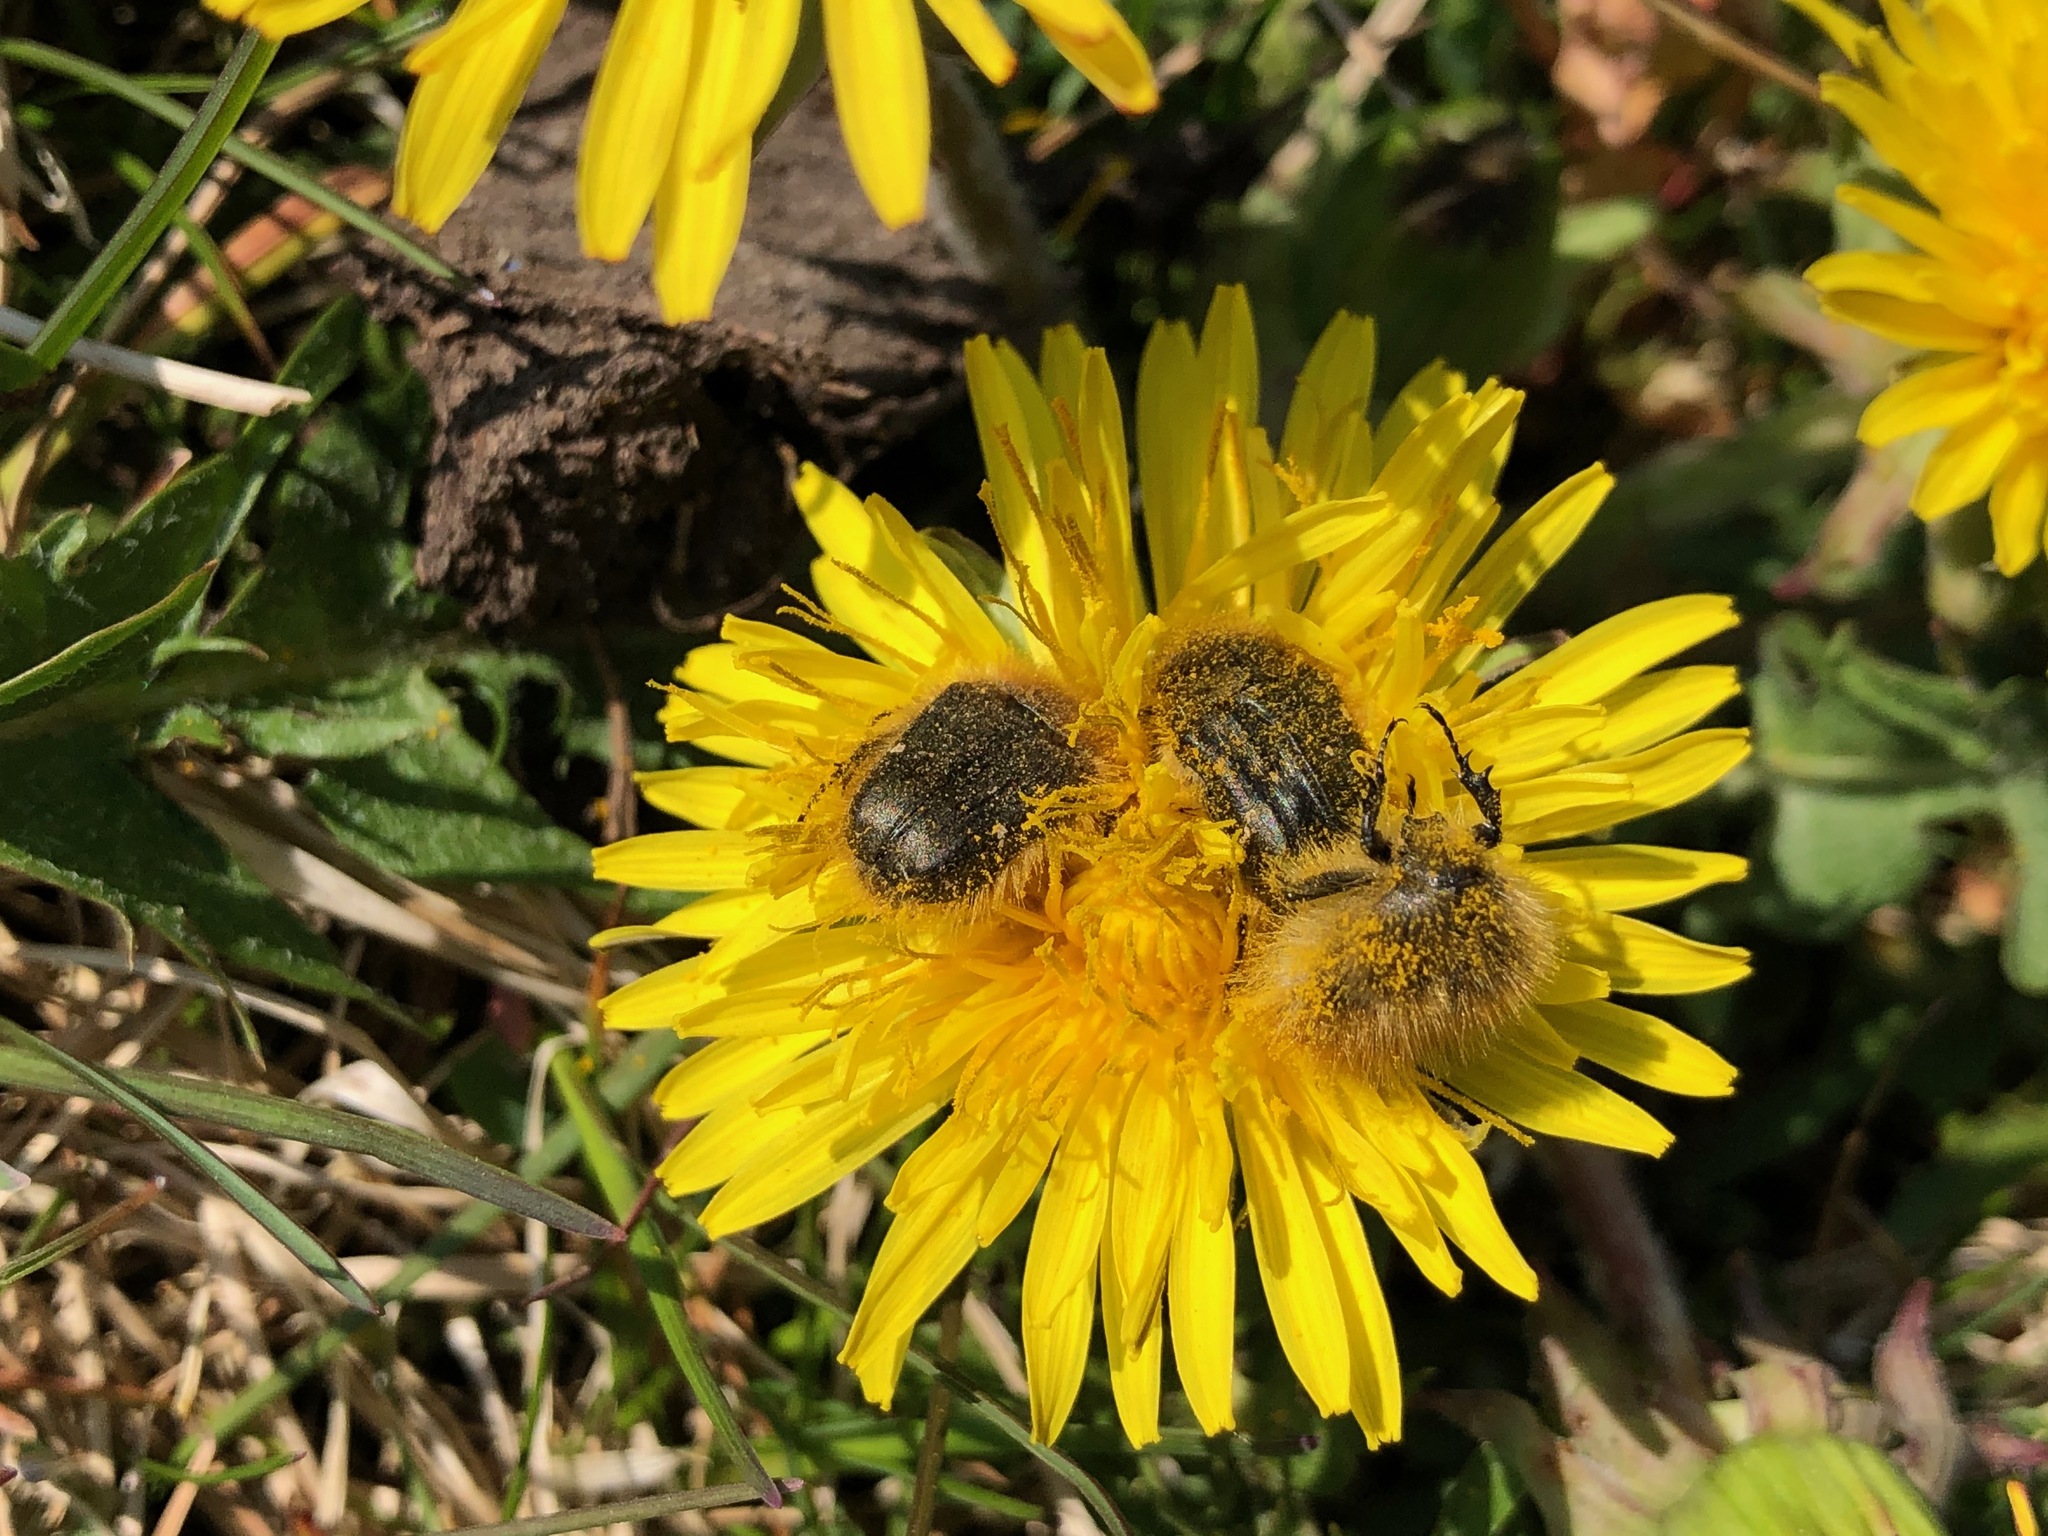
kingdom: Animalia
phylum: Arthropoda
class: Insecta
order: Coleoptera
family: Scarabaeidae
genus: Tropinota
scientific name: Tropinota hirta
